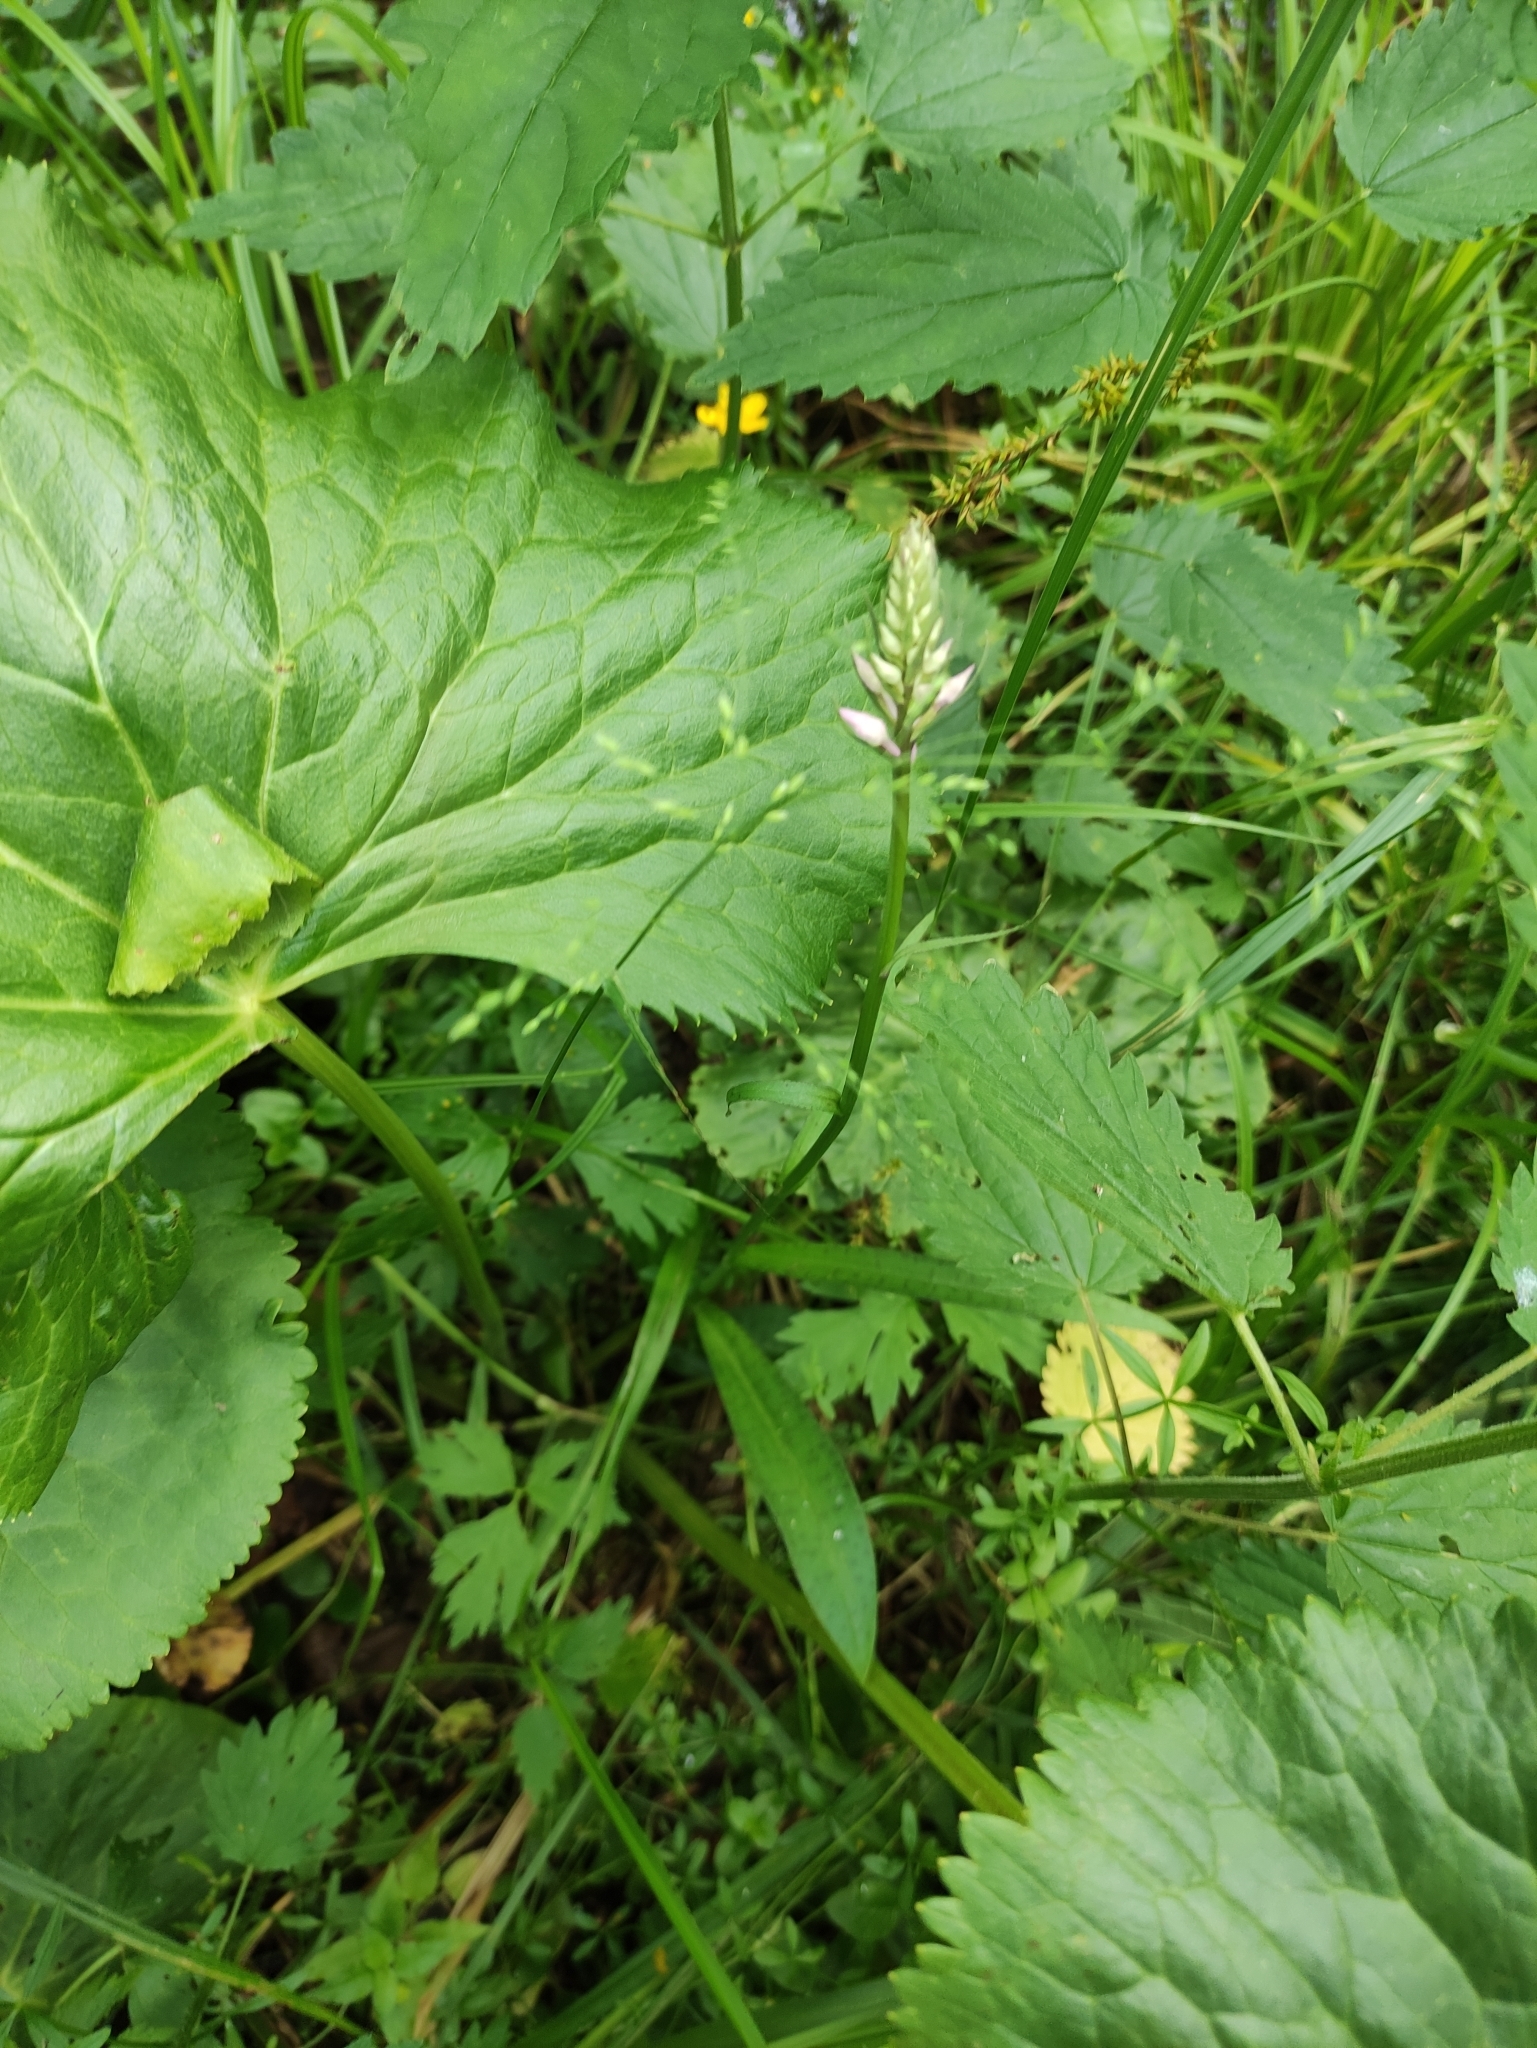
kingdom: Plantae
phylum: Tracheophyta
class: Liliopsida
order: Asparagales
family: Orchidaceae
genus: Dactylorhiza
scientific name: Dactylorhiza maculata
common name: Heath spotted-orchid
